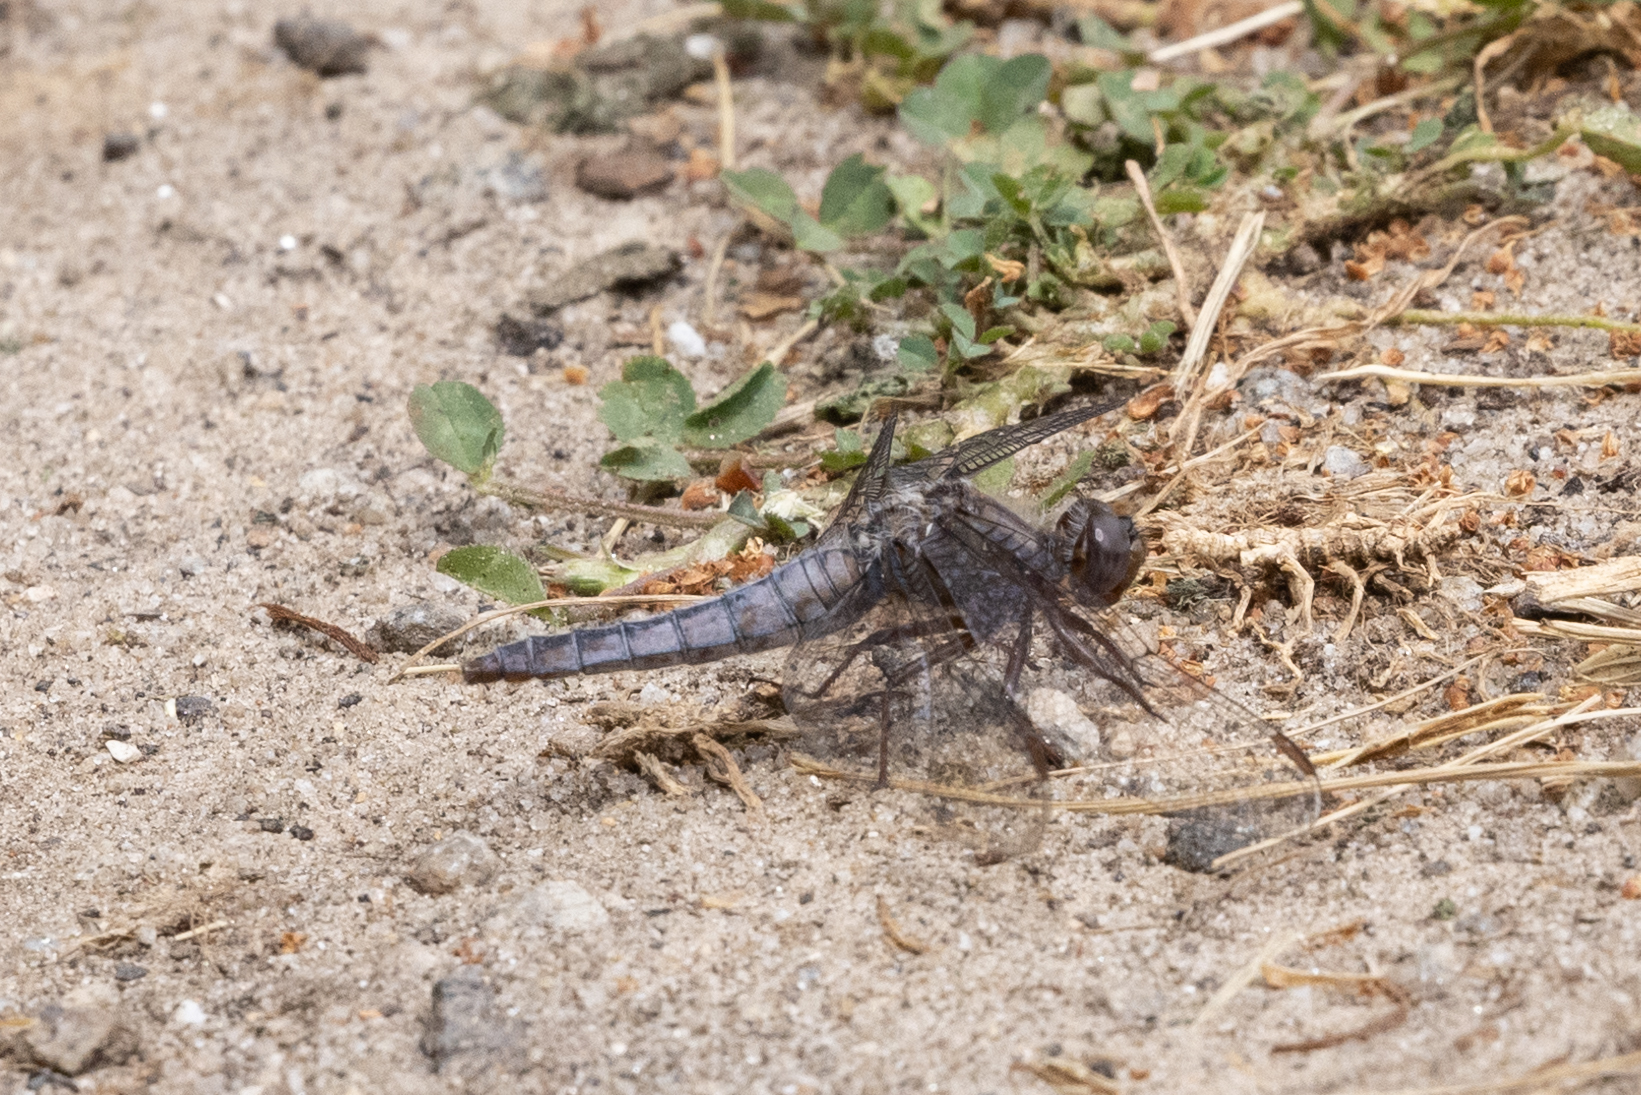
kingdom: Animalia
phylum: Arthropoda
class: Insecta
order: Odonata
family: Libellulidae
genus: Ladona
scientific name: Ladona deplanata
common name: Blue corporal
